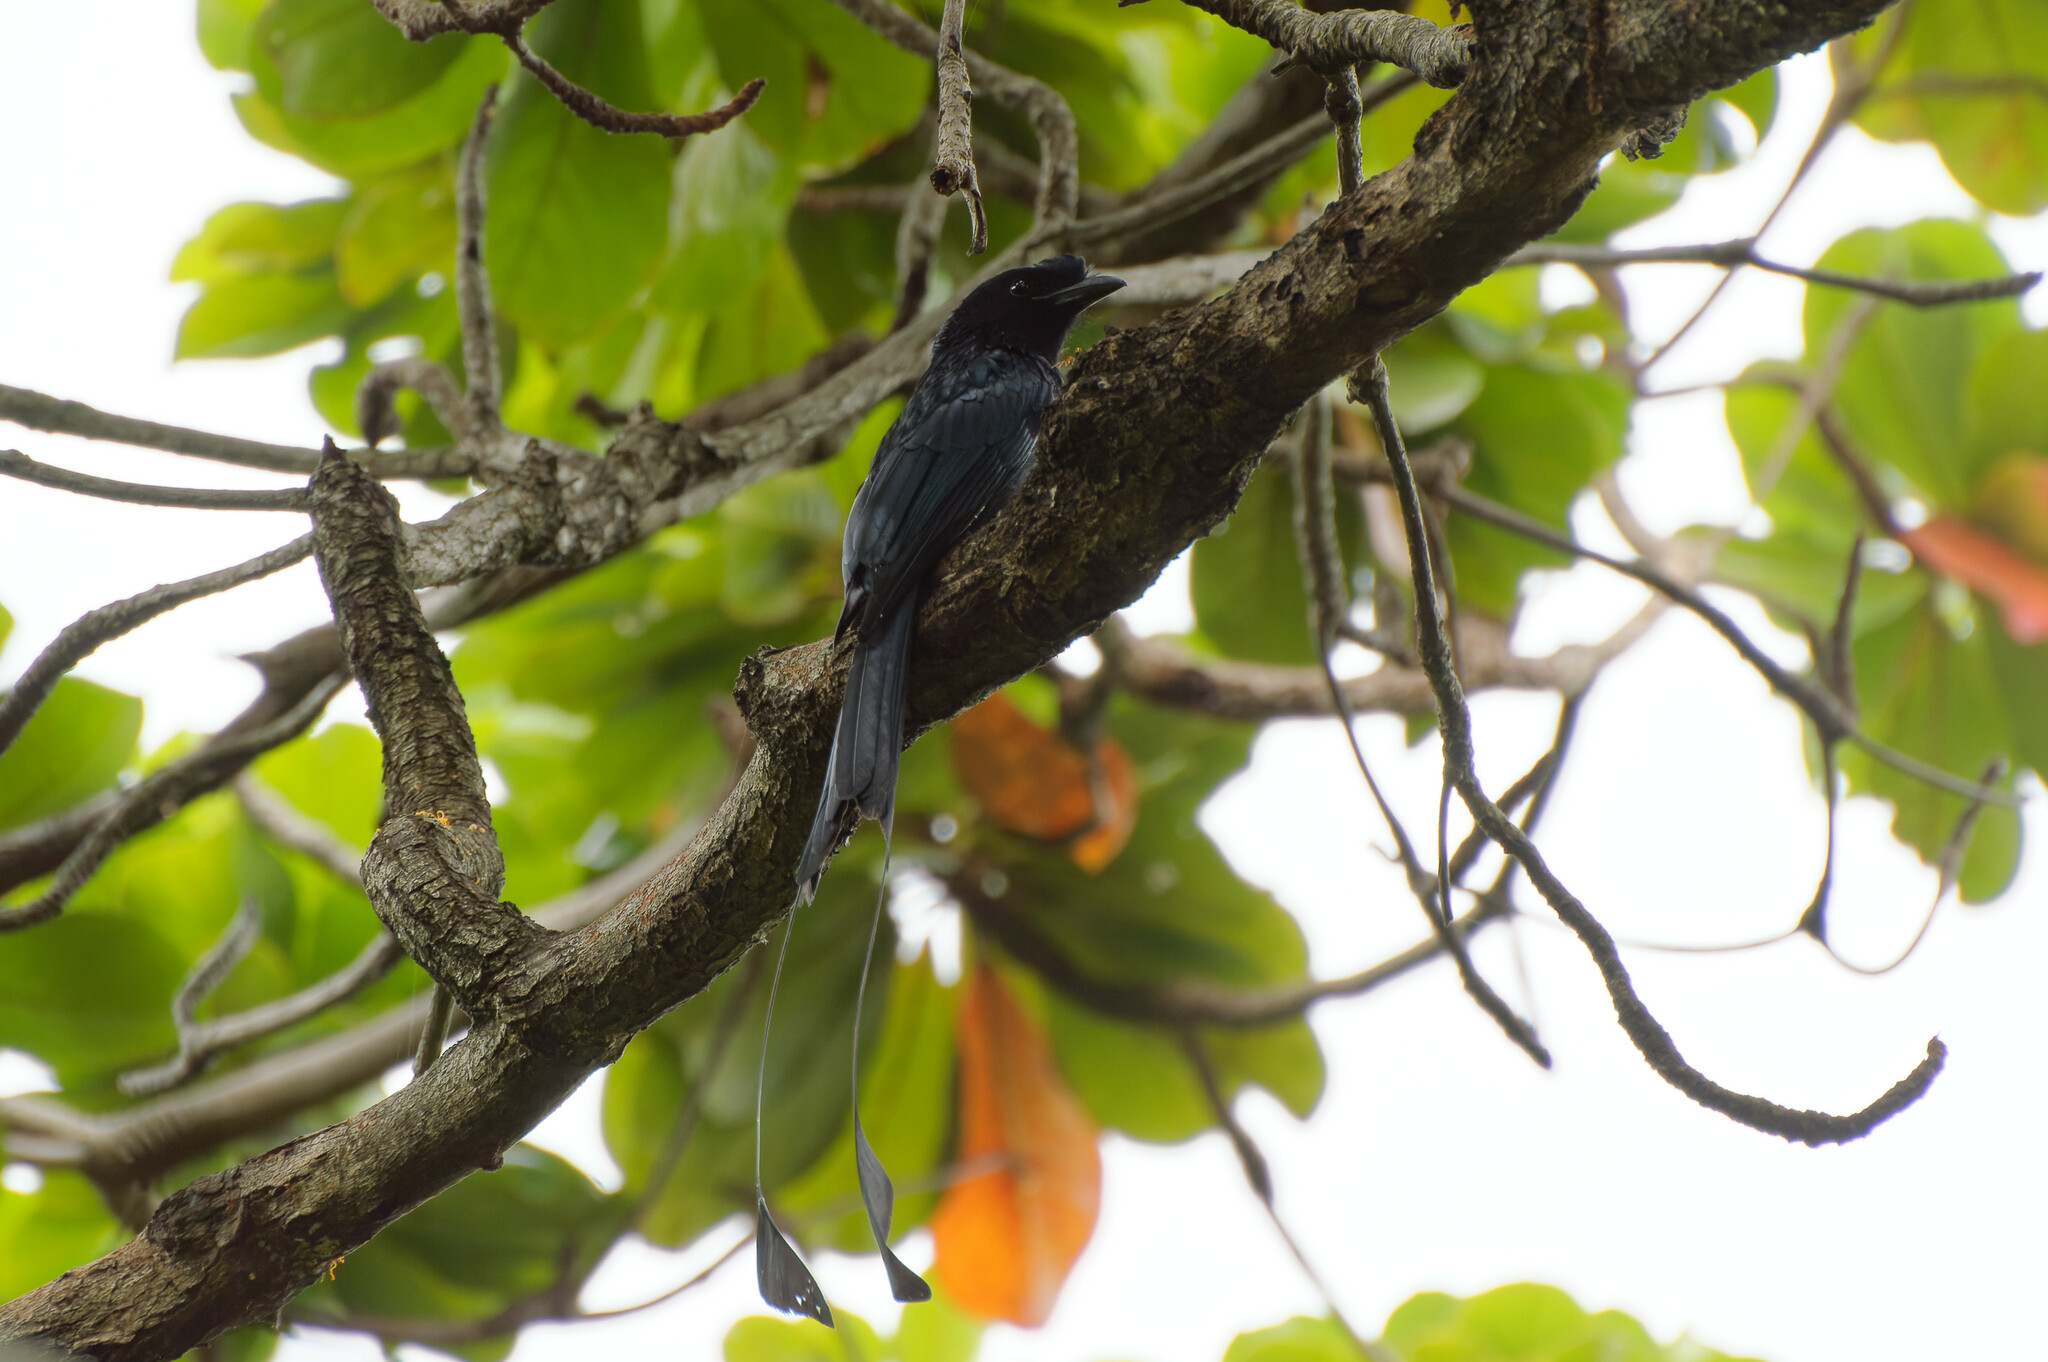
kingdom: Animalia
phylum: Chordata
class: Aves
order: Passeriformes
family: Dicruridae
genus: Dicrurus
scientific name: Dicrurus paradiseus
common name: Greater racket-tailed drongo
